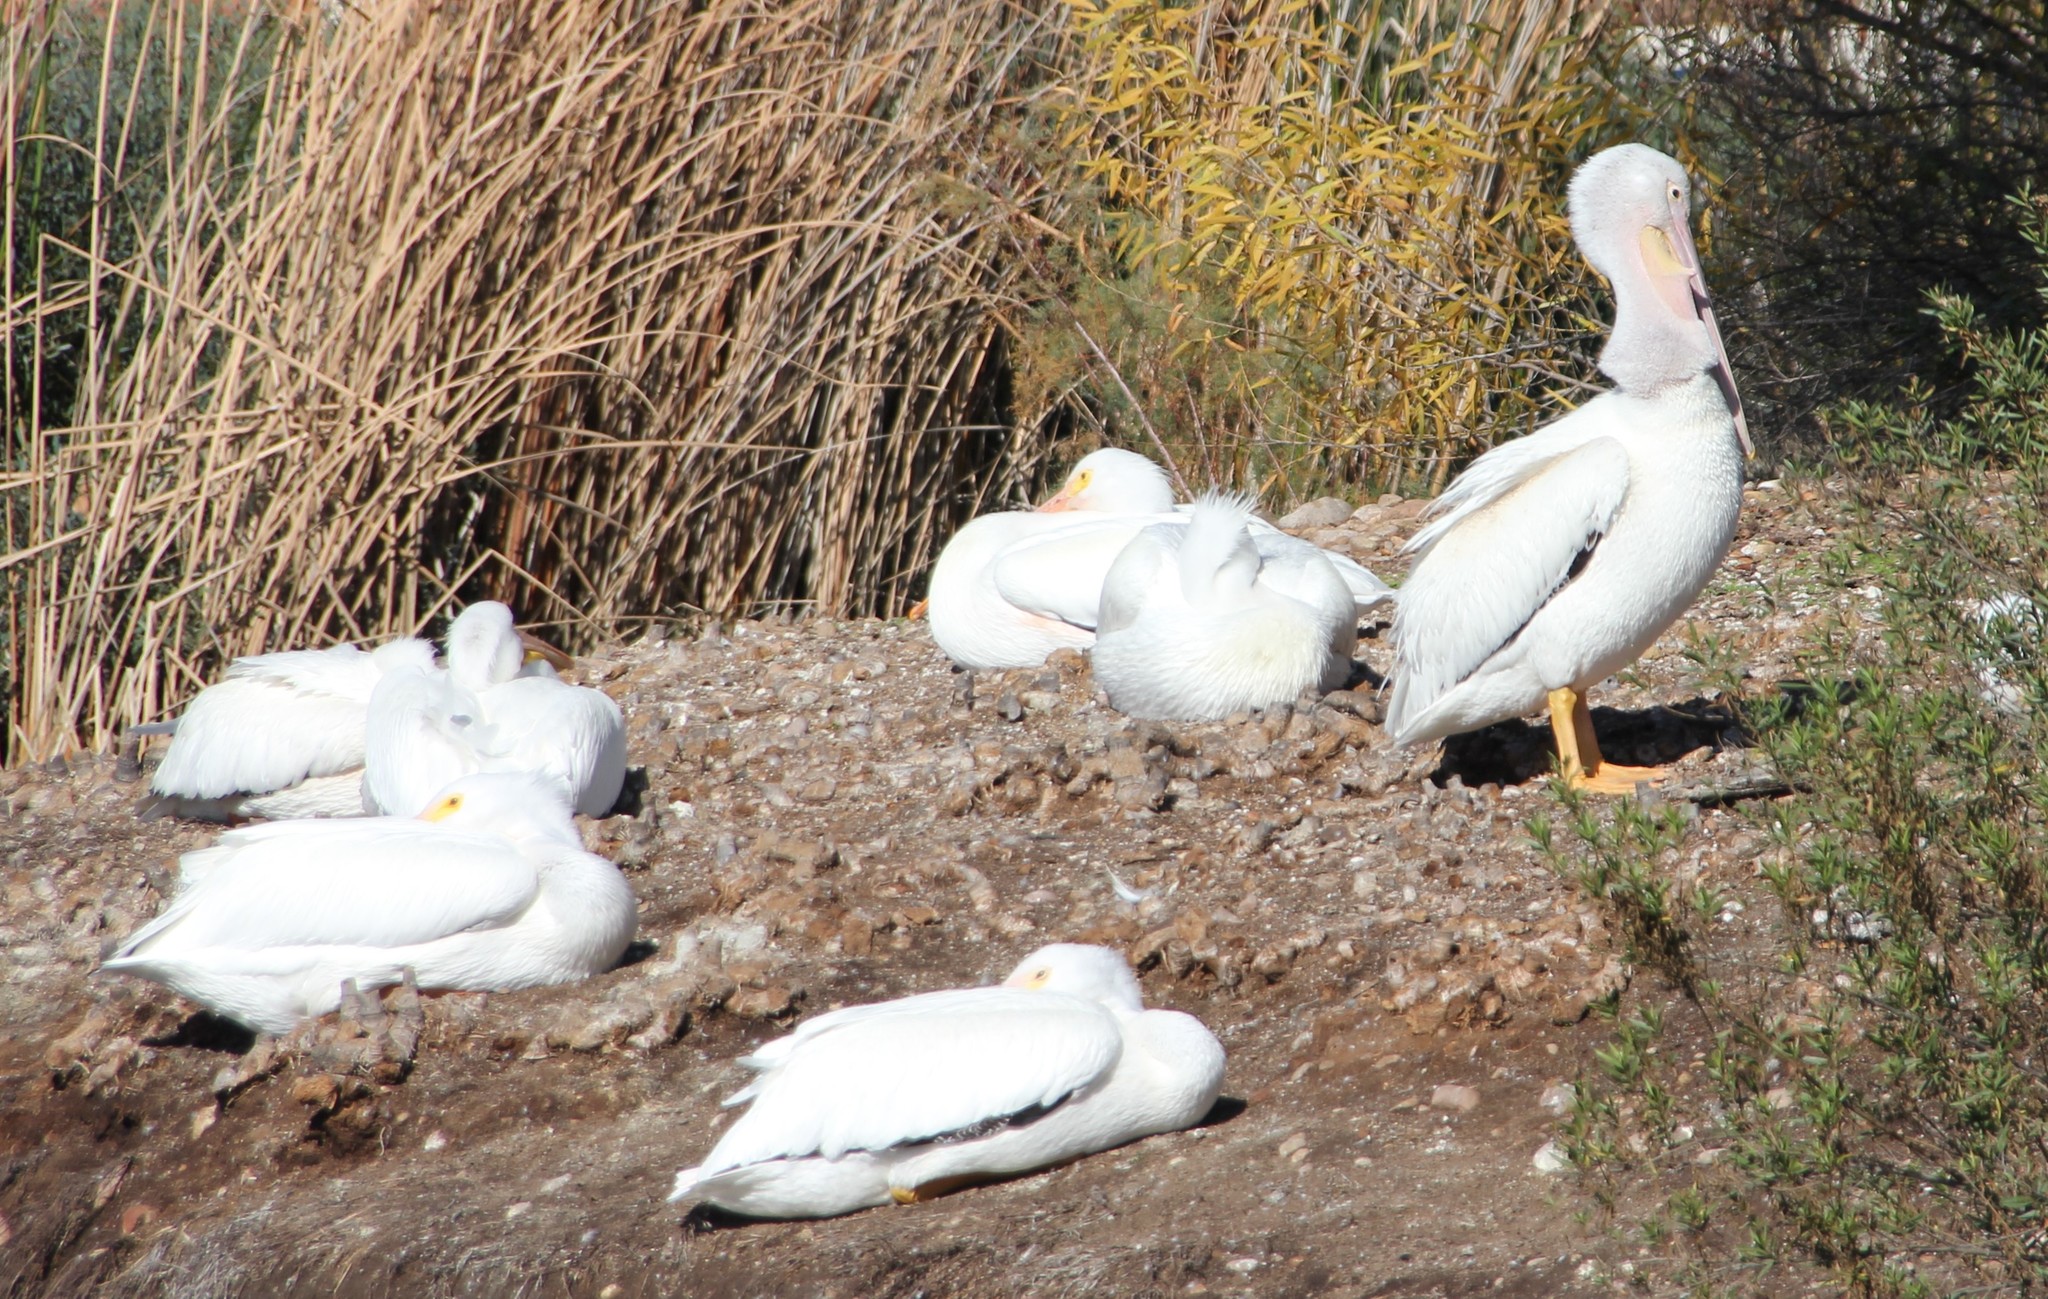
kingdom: Animalia
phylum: Chordata
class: Aves
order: Pelecaniformes
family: Pelecanidae
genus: Pelecanus
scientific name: Pelecanus erythrorhynchos
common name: American white pelican
